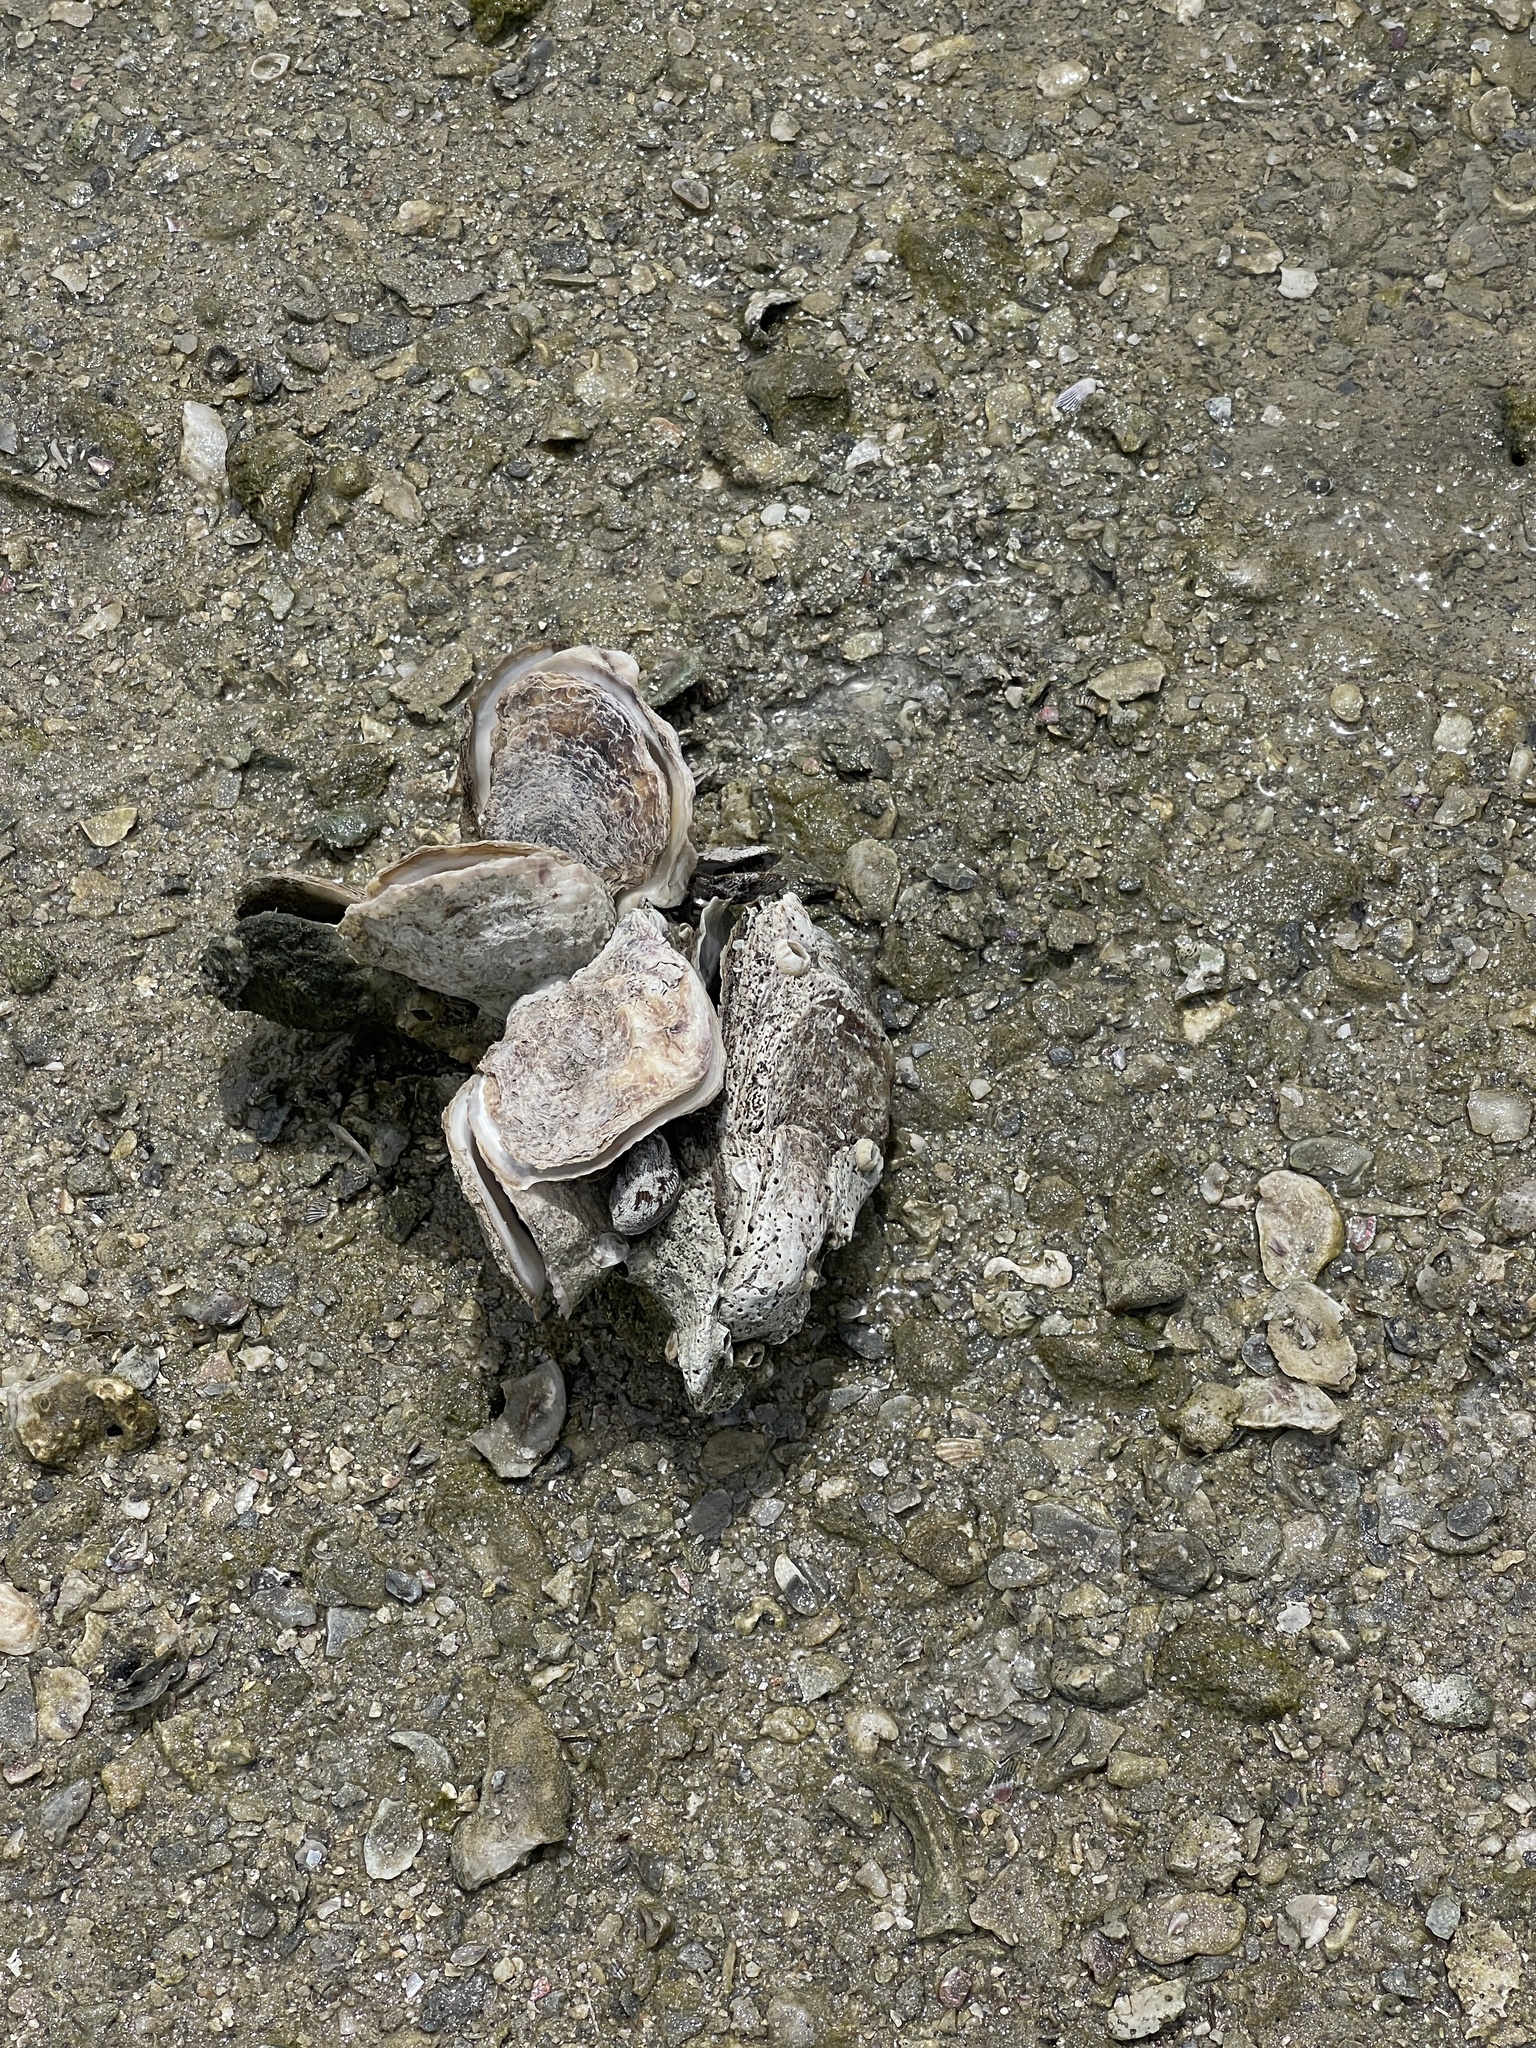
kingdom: Animalia
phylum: Mollusca
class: Bivalvia
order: Ostreida
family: Ostreidae
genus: Crassostrea
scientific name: Crassostrea virginica
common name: American oyster
